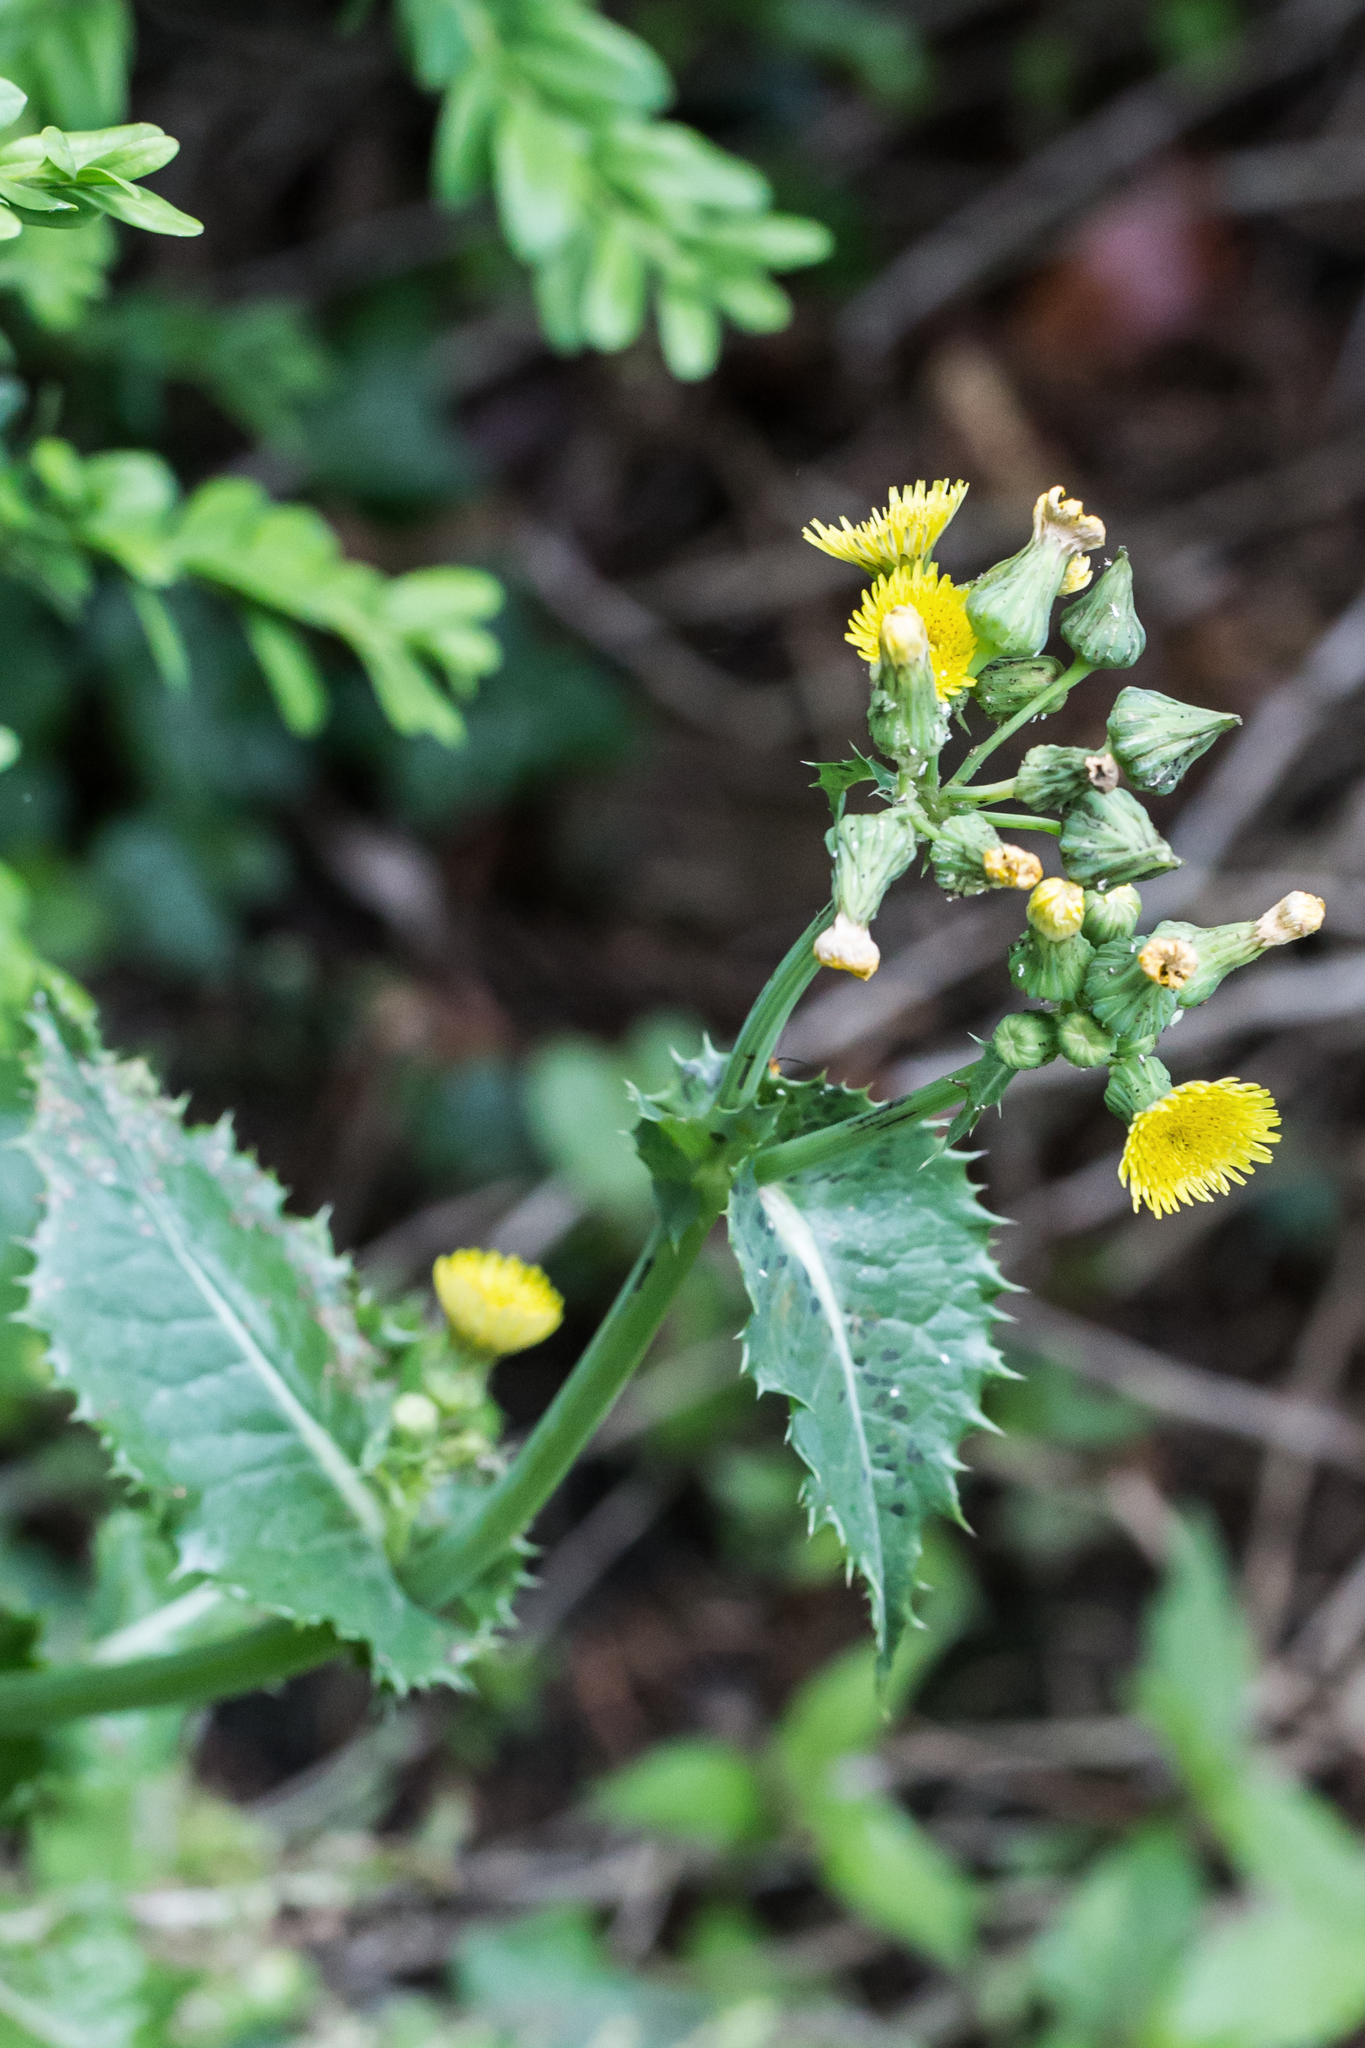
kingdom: Plantae
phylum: Tracheophyta
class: Magnoliopsida
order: Asterales
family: Asteraceae
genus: Sonchus
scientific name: Sonchus asper
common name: Prickly sow-thistle
